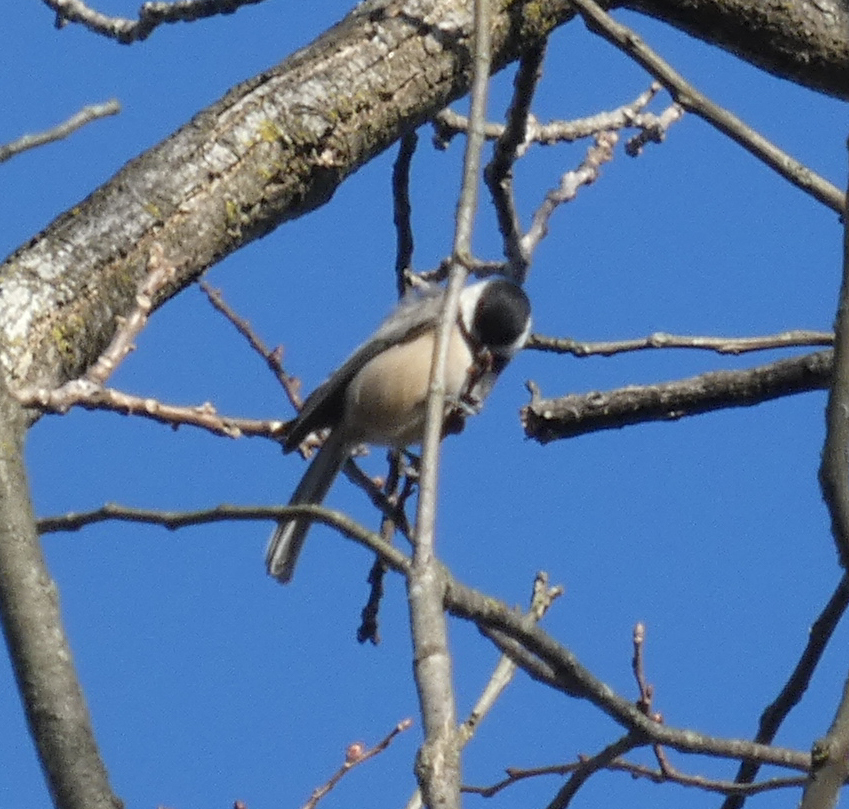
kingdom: Animalia
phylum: Chordata
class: Aves
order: Passeriformes
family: Paridae
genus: Poecile
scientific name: Poecile carolinensis
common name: Carolina chickadee
